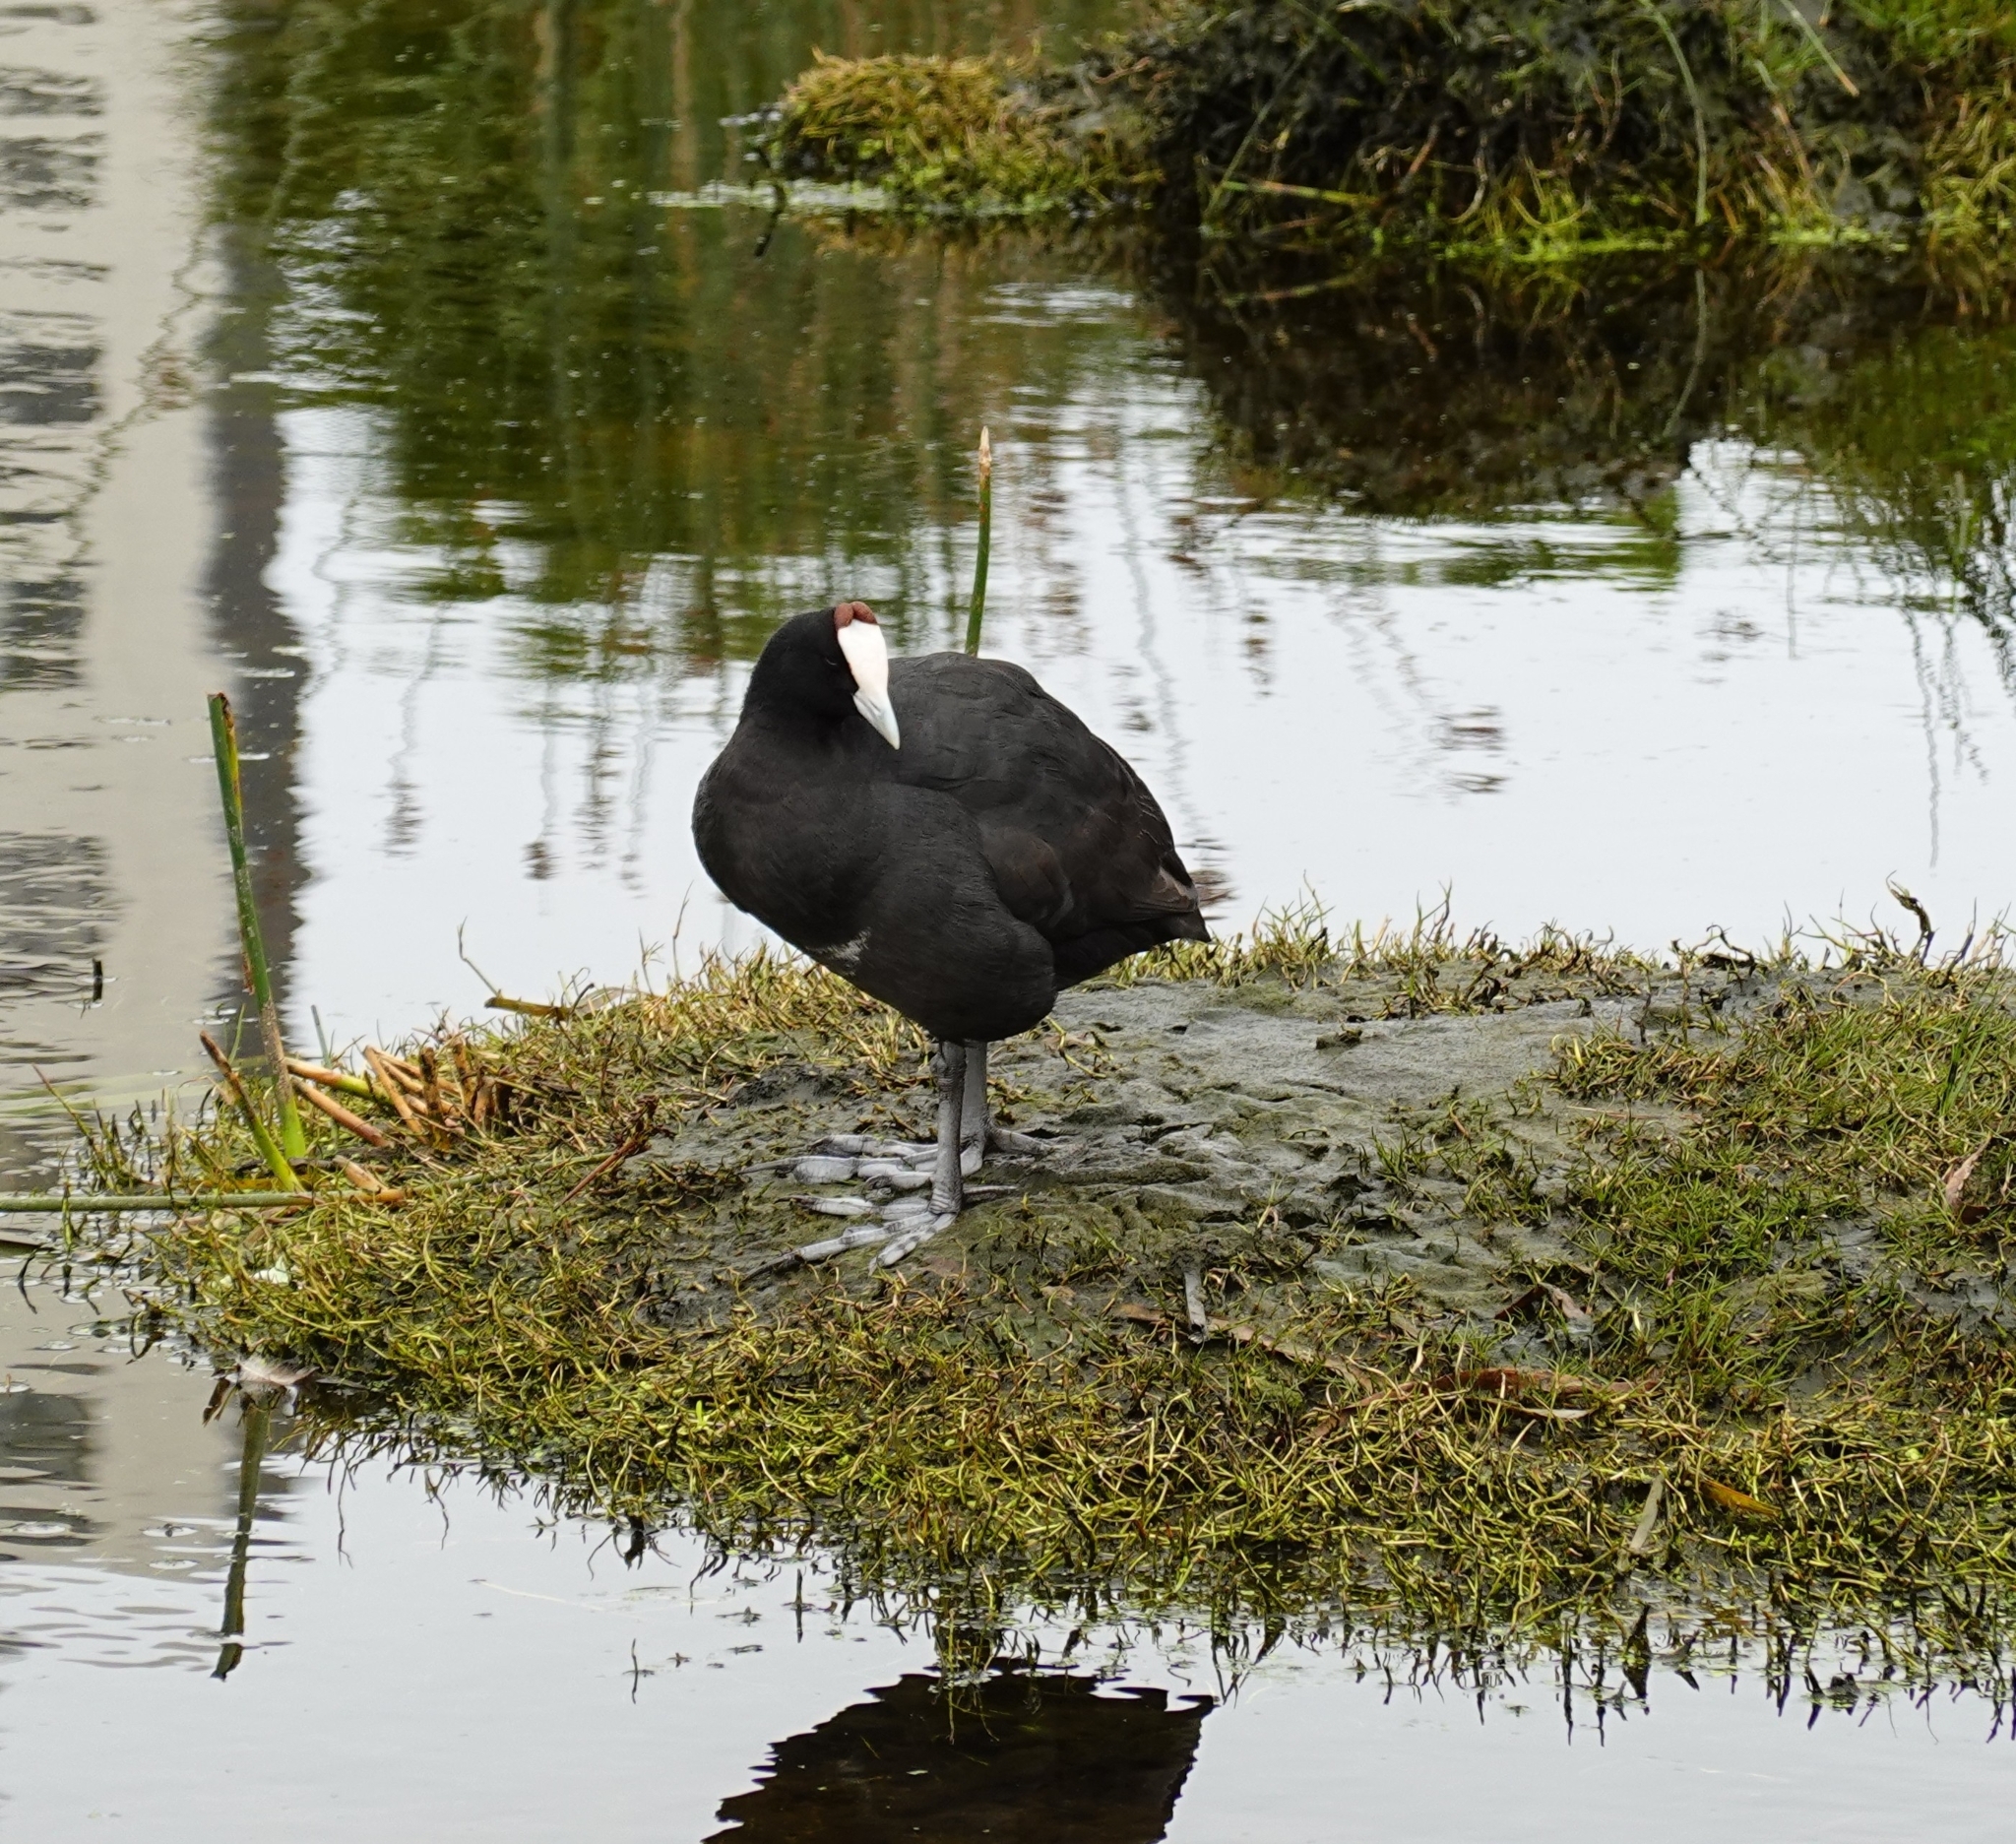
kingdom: Animalia
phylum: Chordata
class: Aves
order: Gruiformes
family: Rallidae
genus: Fulica
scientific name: Fulica cristata
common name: Red-knobbed coot
